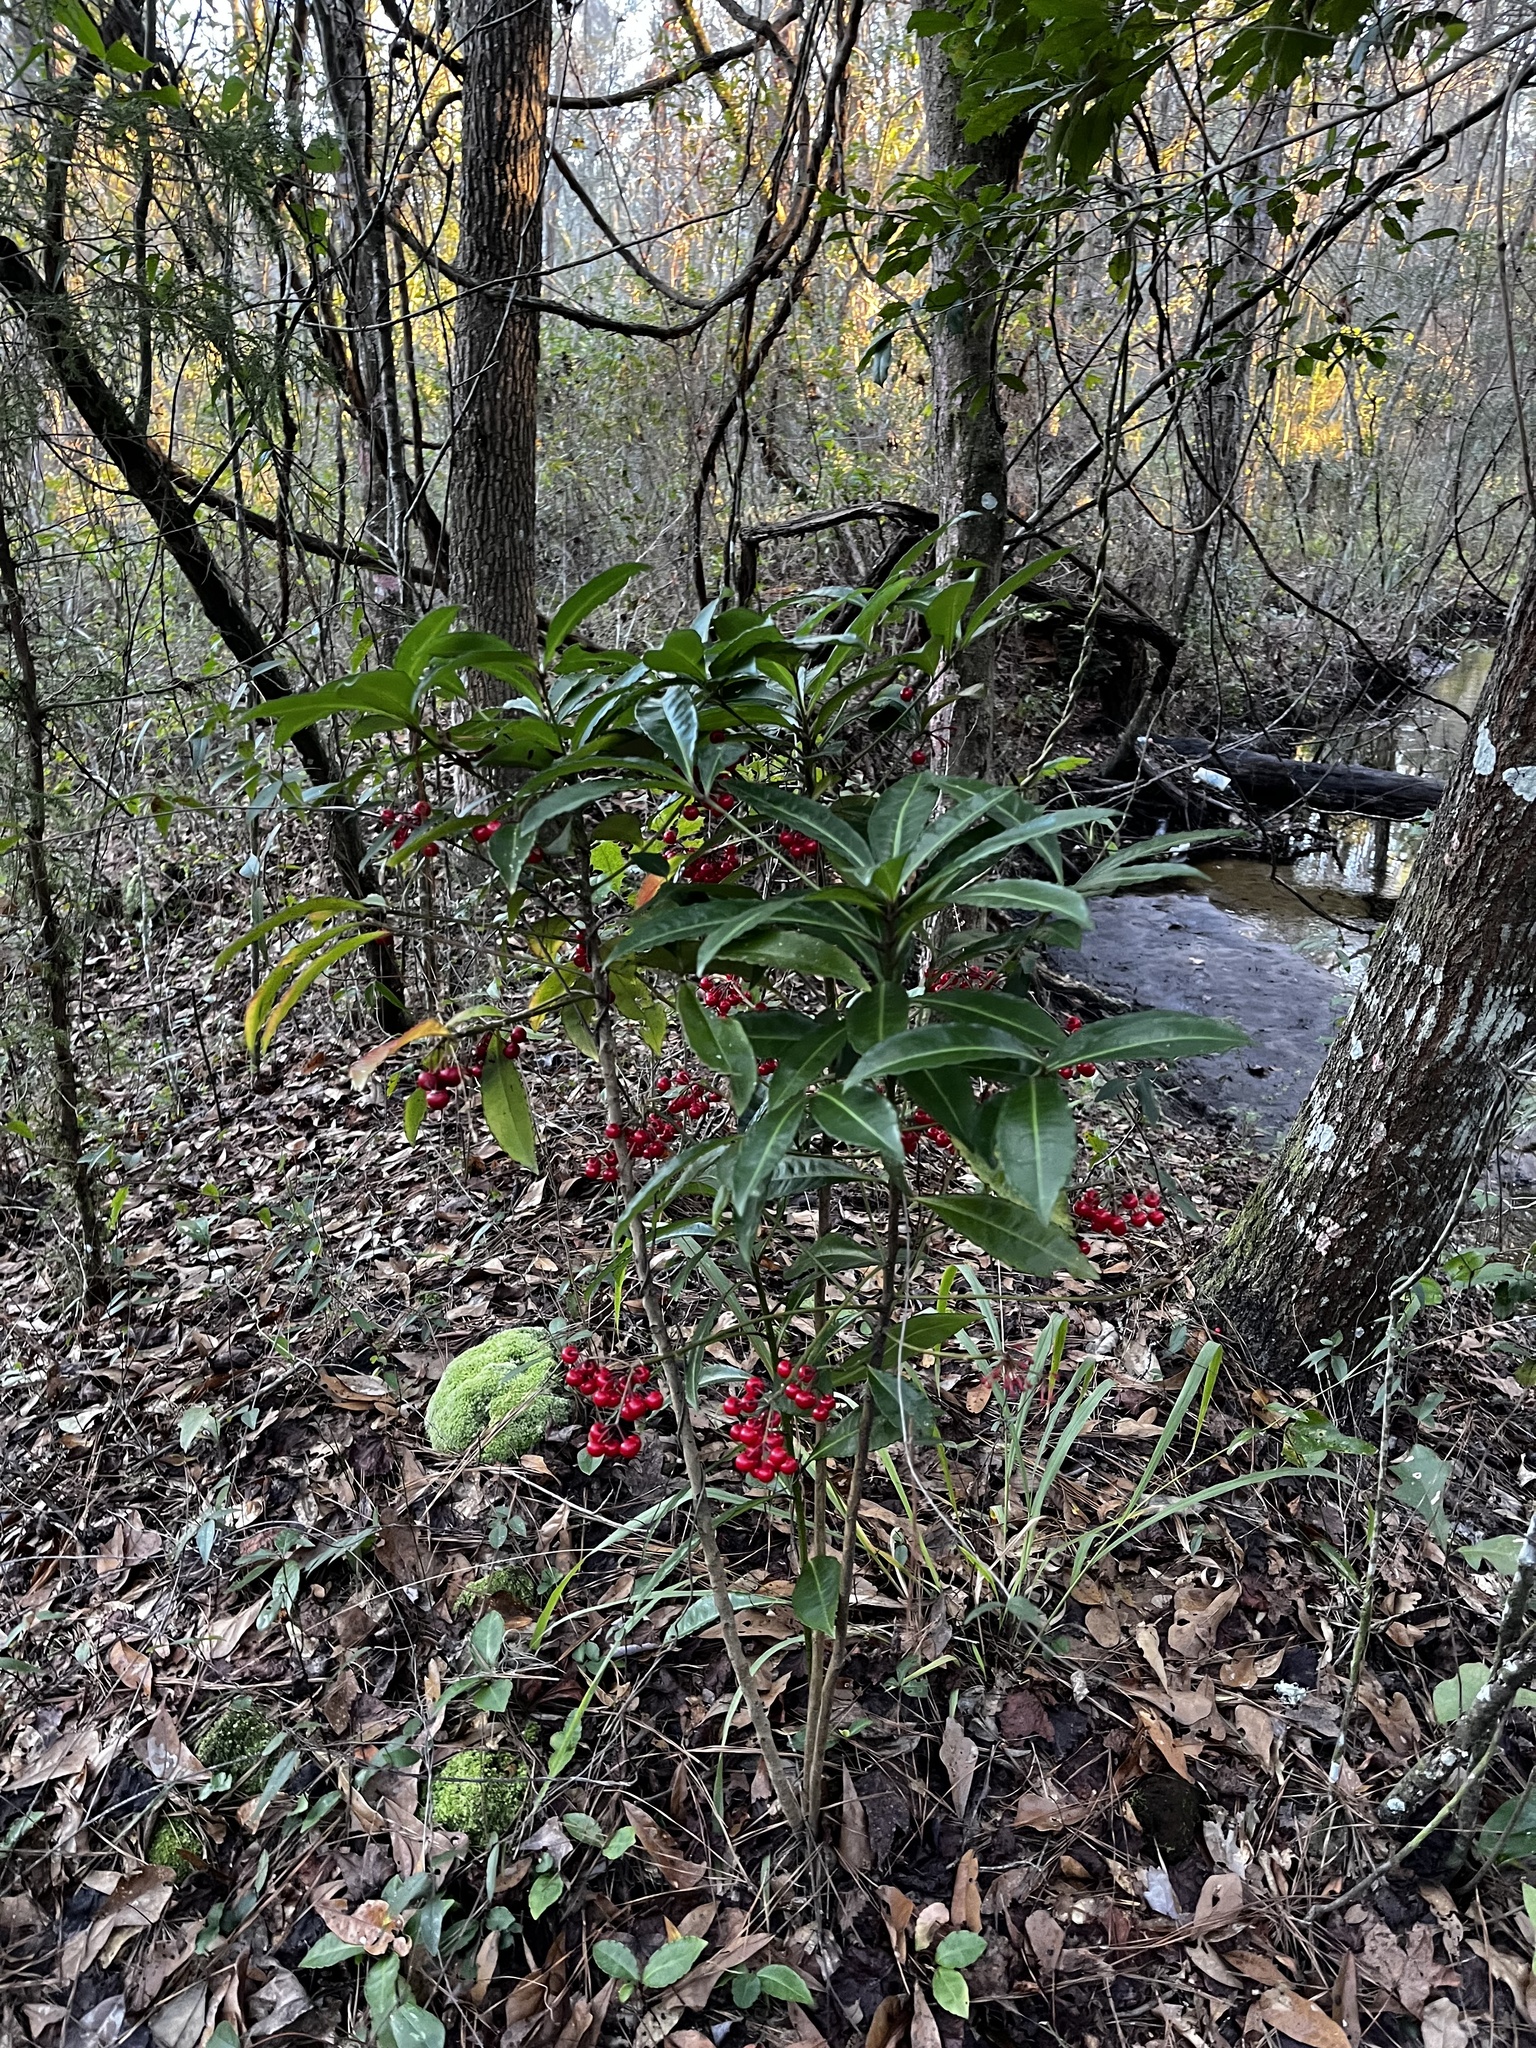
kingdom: Plantae
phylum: Tracheophyta
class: Magnoliopsida
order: Ericales
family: Primulaceae
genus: Ardisia
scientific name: Ardisia crenata
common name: Hen's eyes
